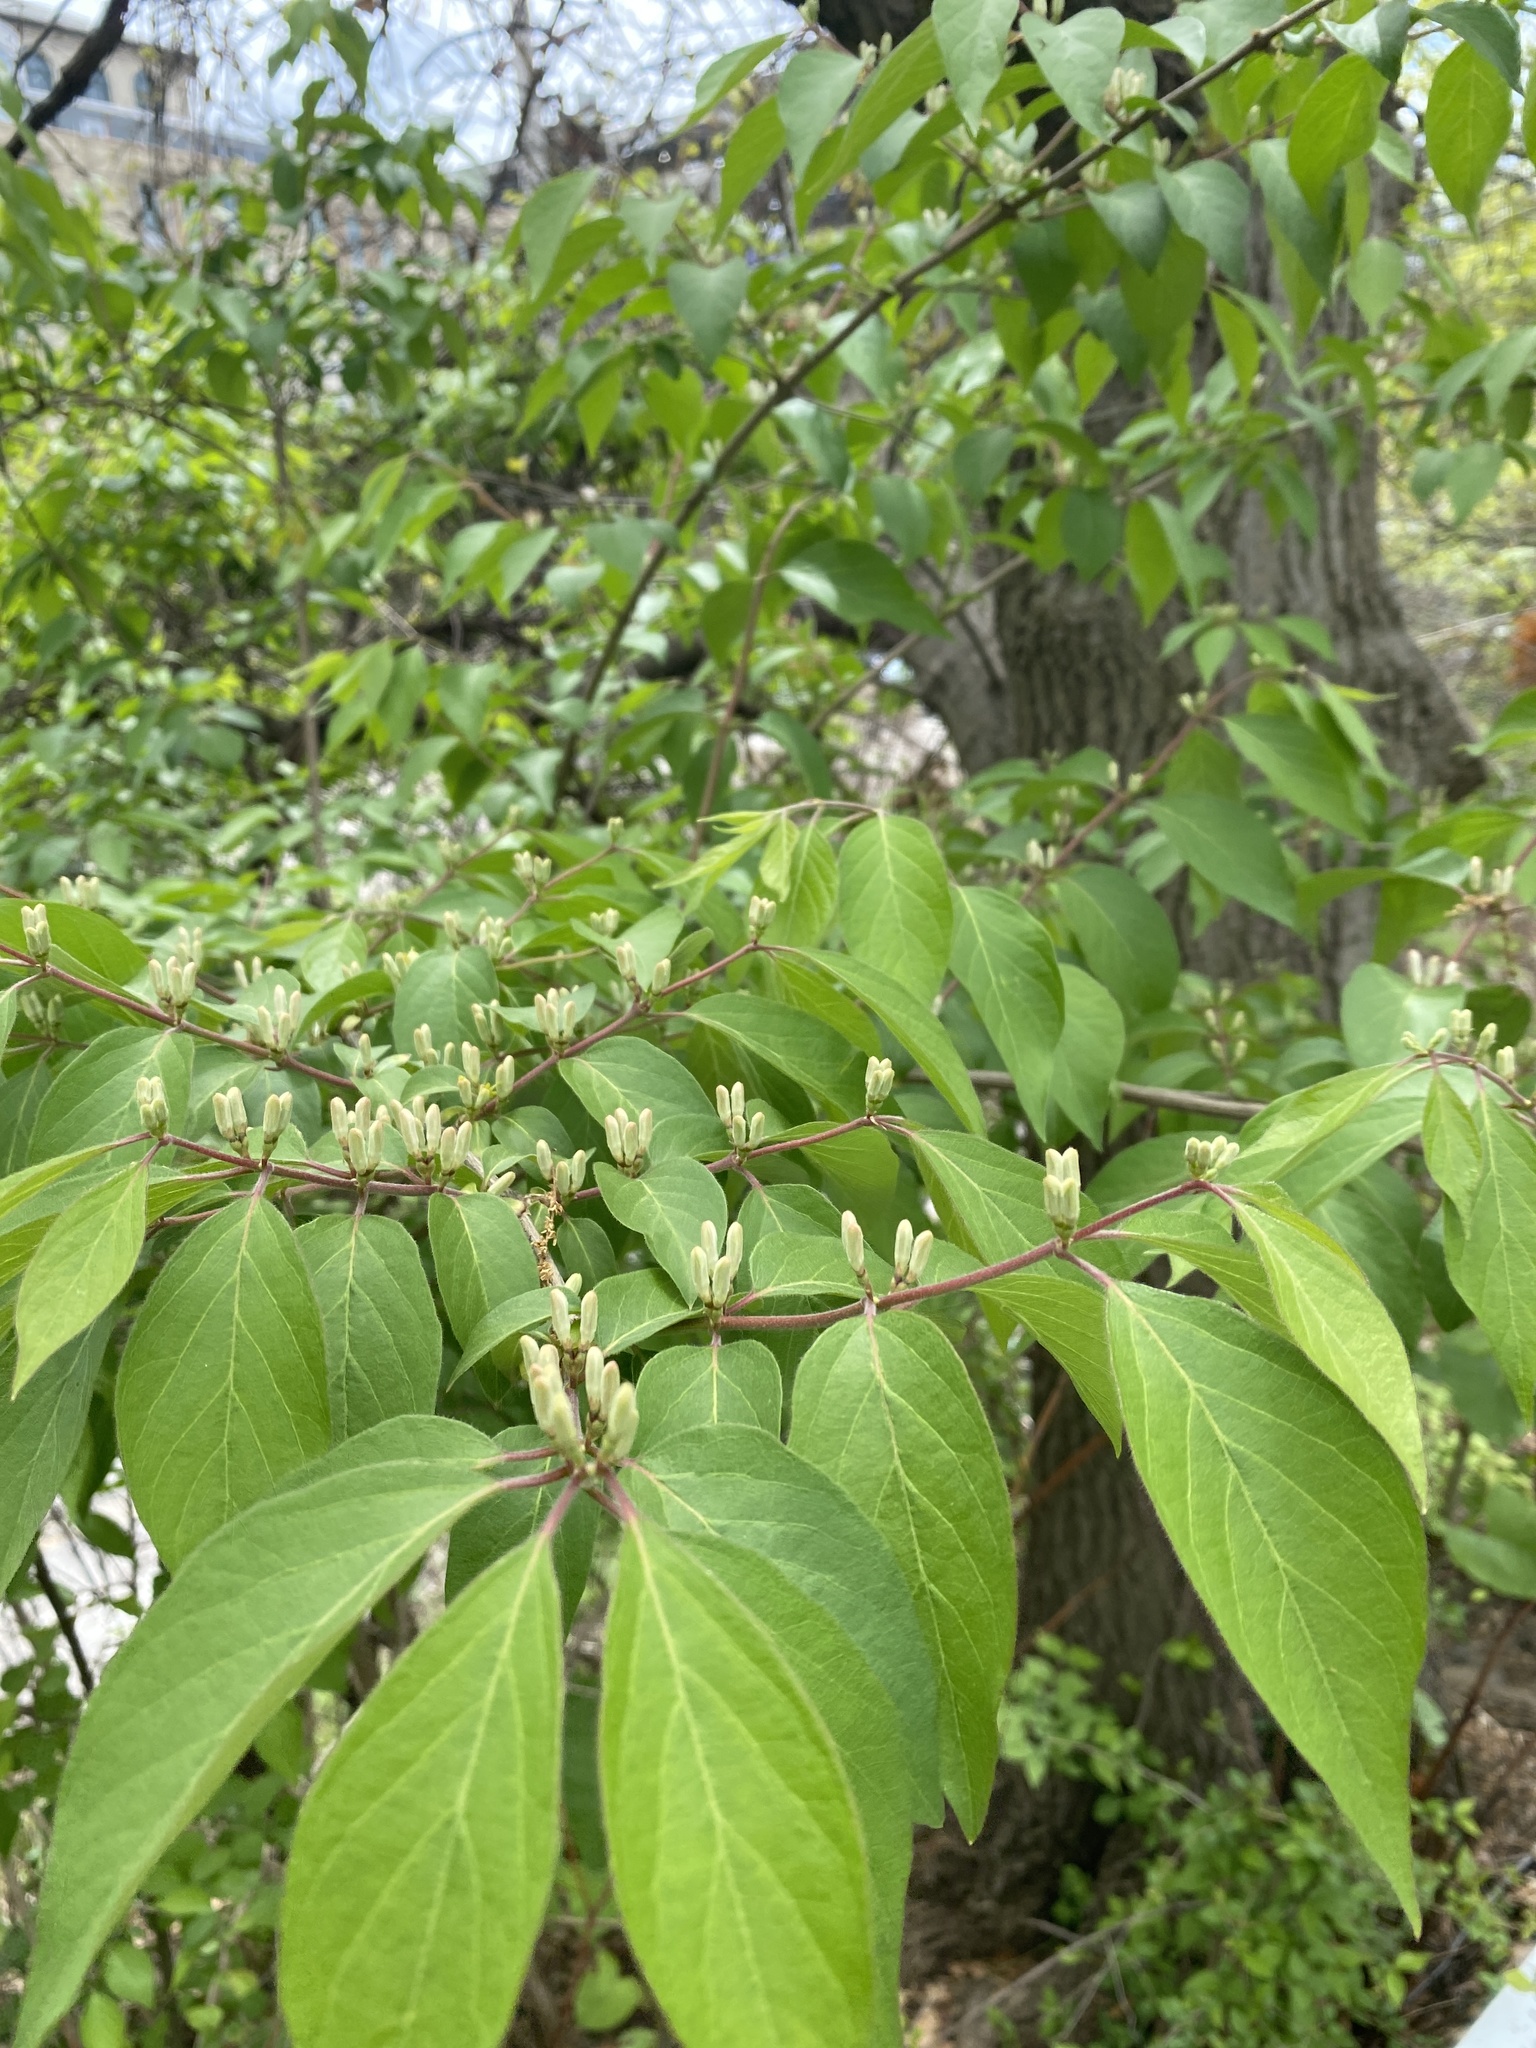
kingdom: Plantae
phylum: Tracheophyta
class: Magnoliopsida
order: Dipsacales
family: Caprifoliaceae
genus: Lonicera
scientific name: Lonicera maackii
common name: Amur honeysuckle
